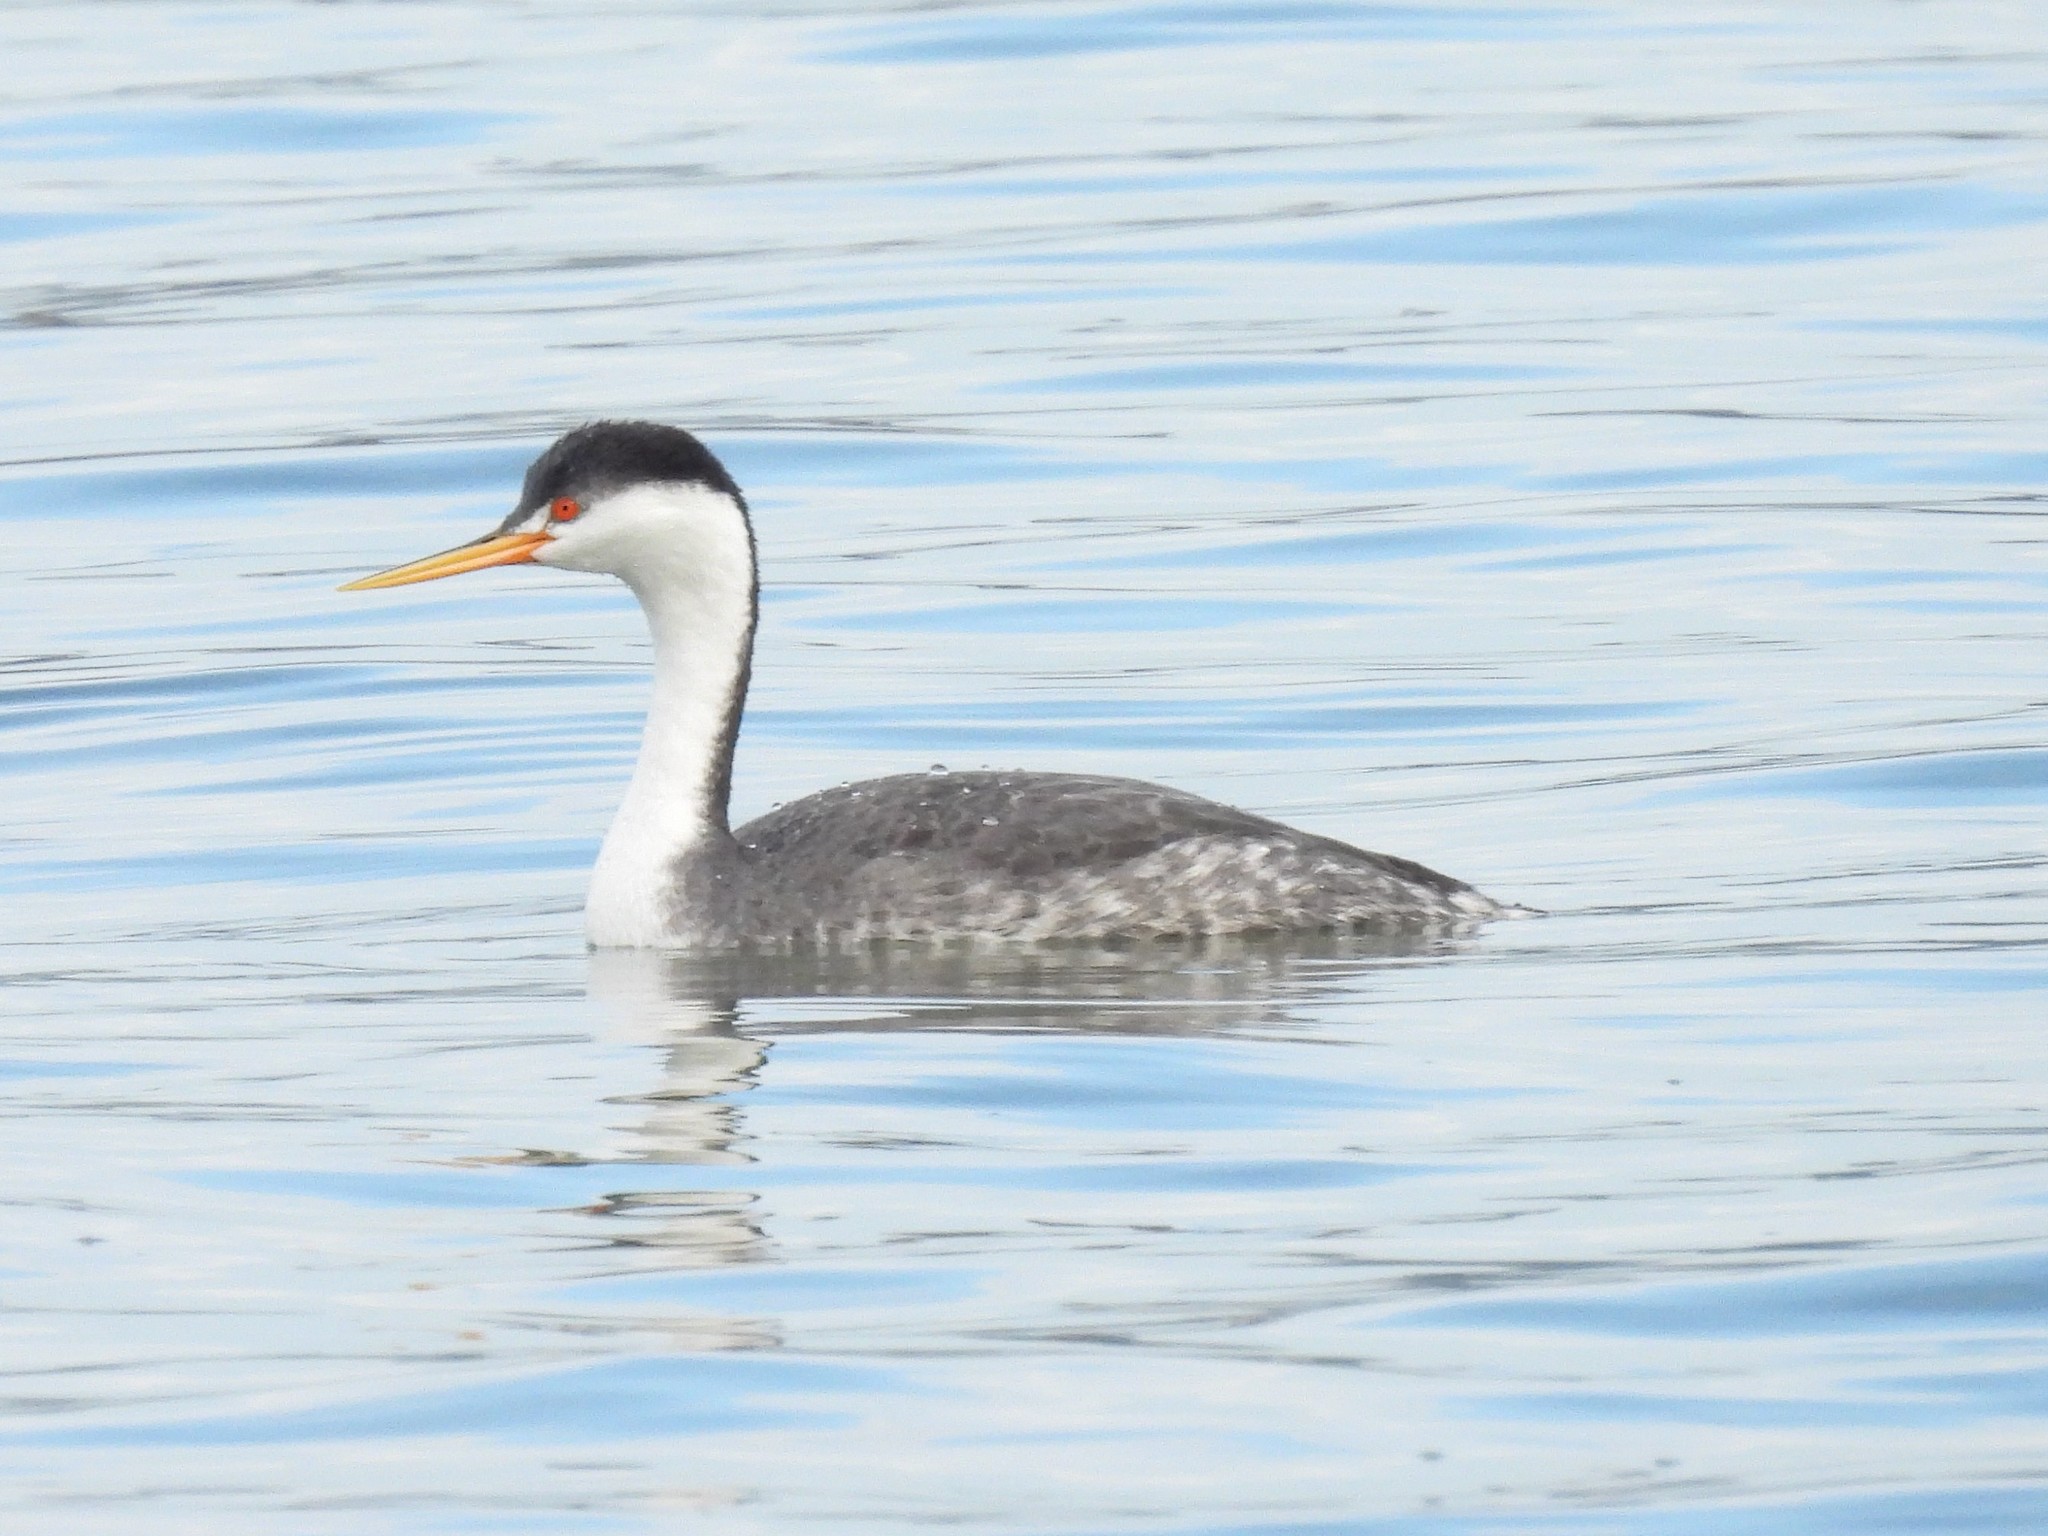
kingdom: Animalia
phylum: Chordata
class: Aves
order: Podicipediformes
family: Podicipedidae
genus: Aechmophorus
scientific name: Aechmophorus clarkii
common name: Clark's grebe
